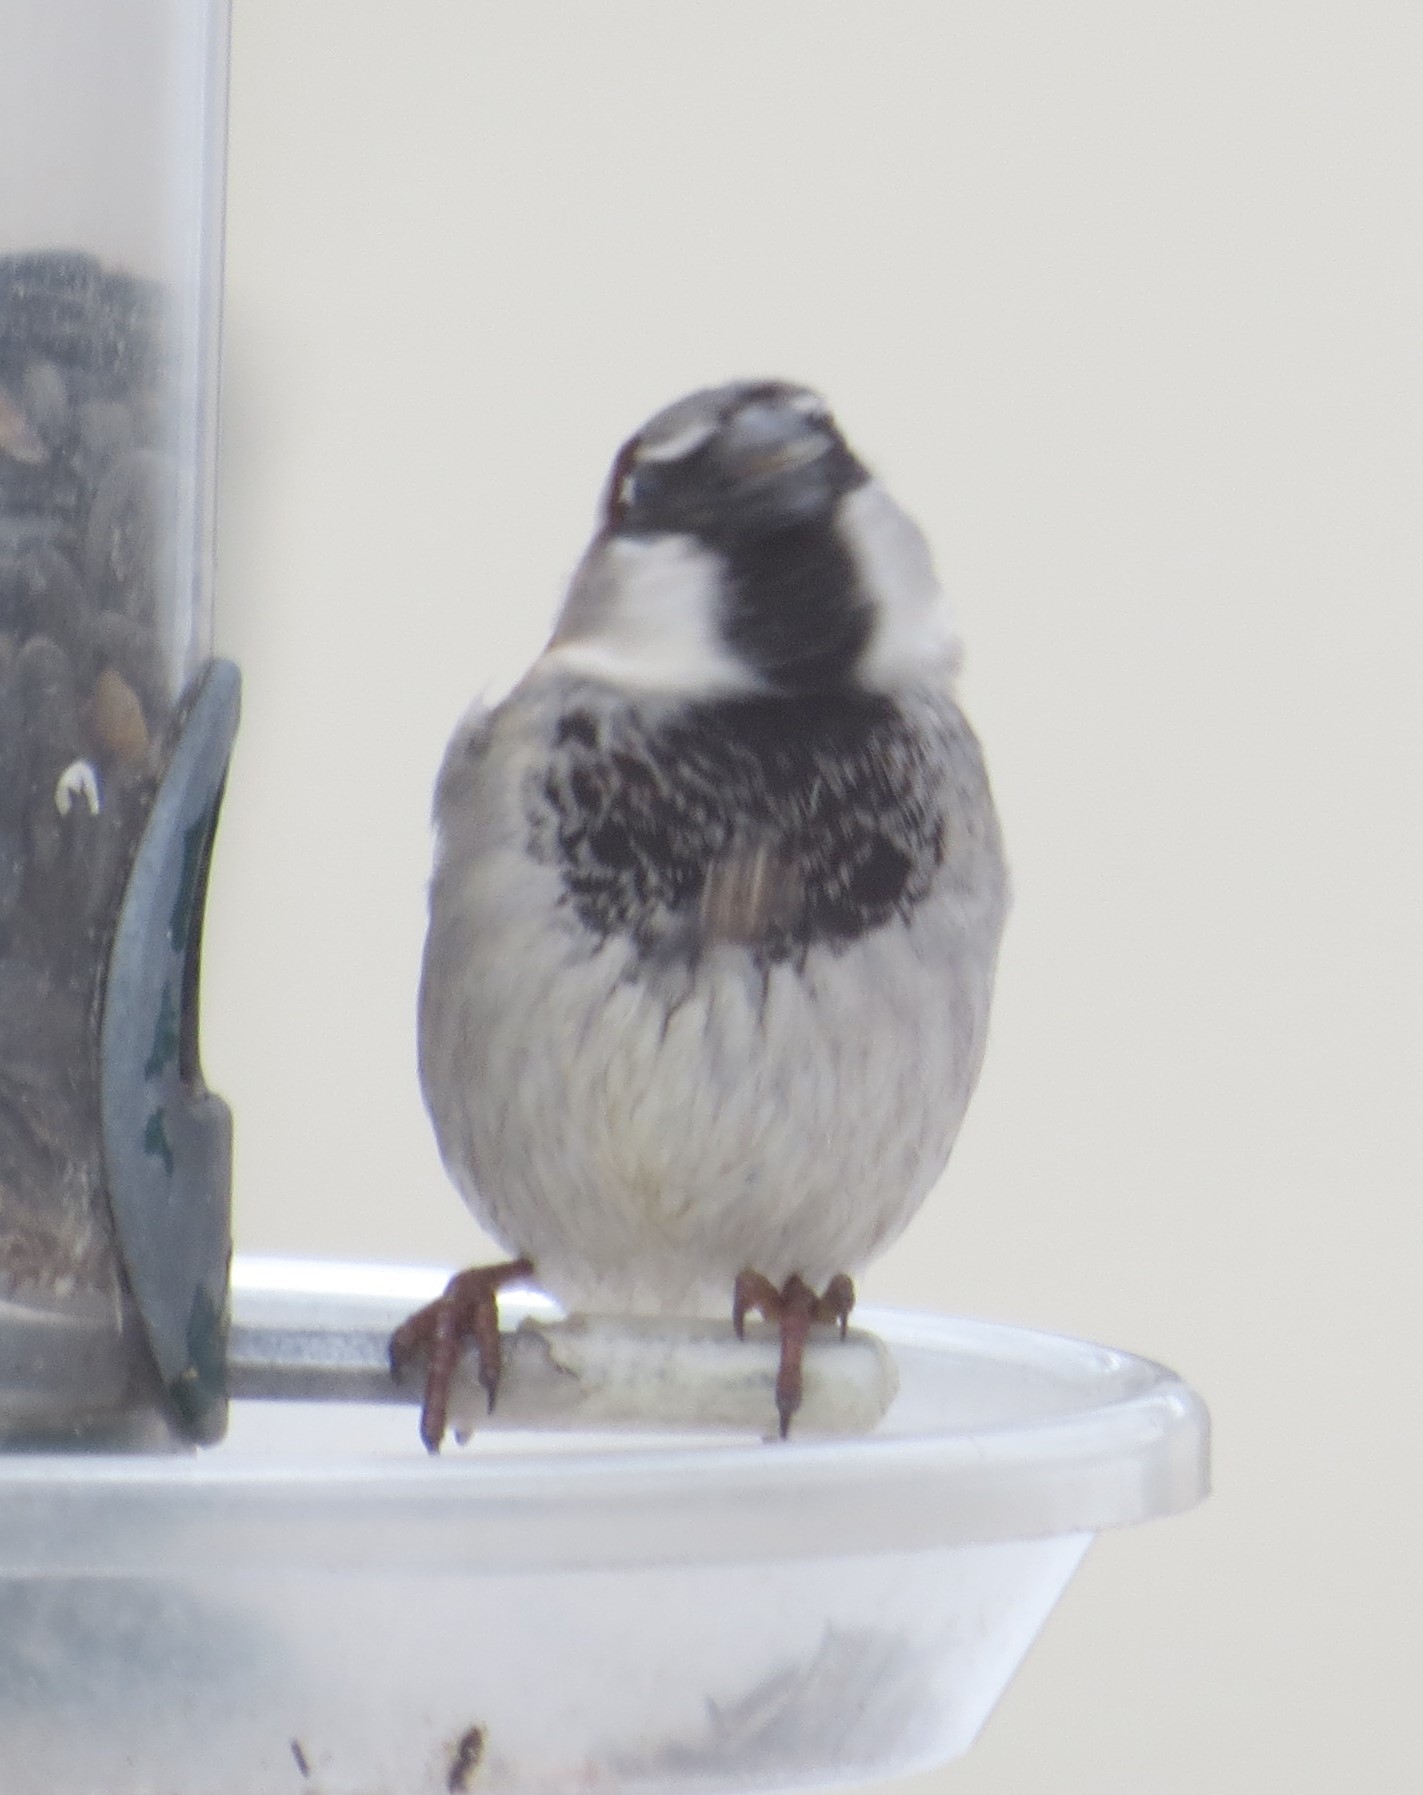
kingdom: Animalia
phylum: Chordata
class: Aves
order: Passeriformes
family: Passeridae
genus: Passer
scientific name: Passer domesticus
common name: House sparrow
